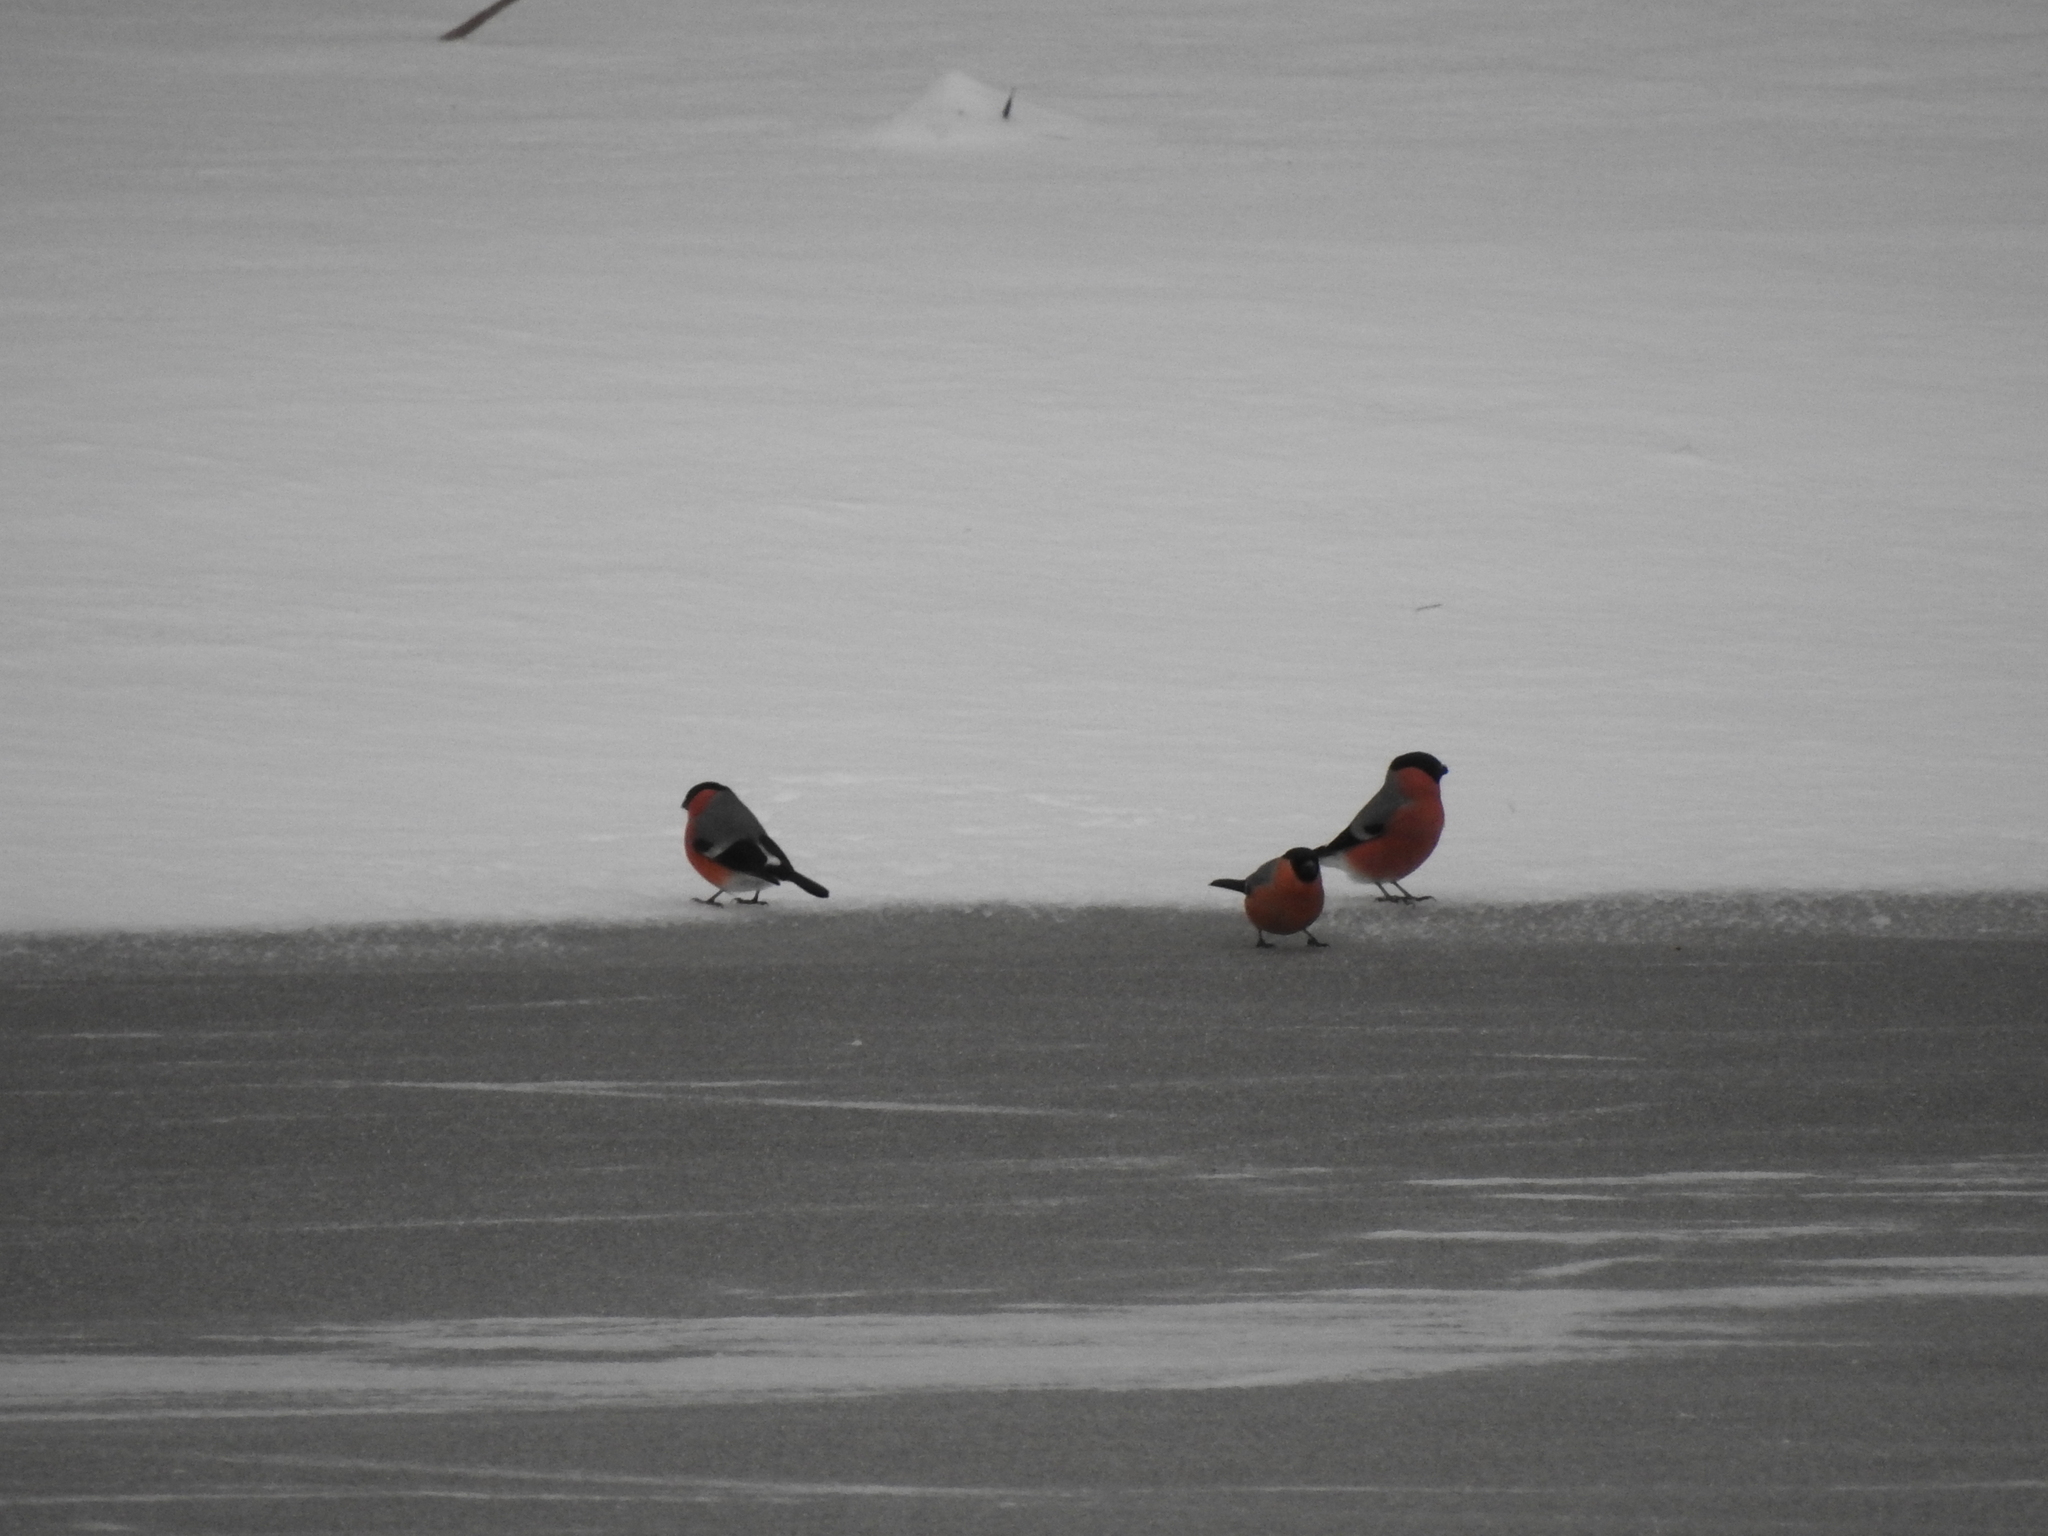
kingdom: Animalia
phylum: Chordata
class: Aves
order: Passeriformes
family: Fringillidae
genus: Pyrrhula
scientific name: Pyrrhula pyrrhula
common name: Eurasian bullfinch
